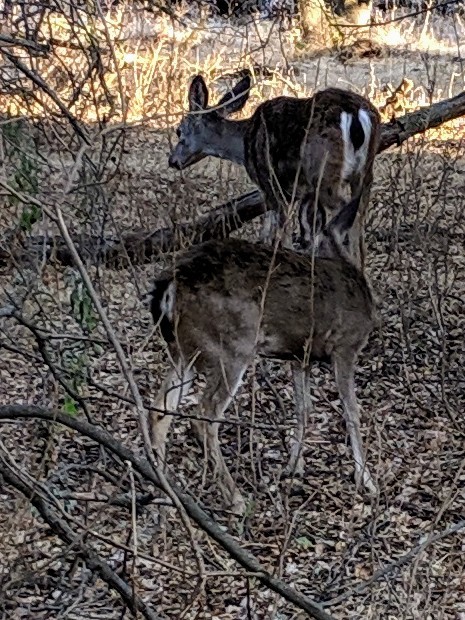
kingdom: Animalia
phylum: Chordata
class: Mammalia
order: Artiodactyla
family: Cervidae
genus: Odocoileus
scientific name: Odocoileus hemionus
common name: Mule deer
